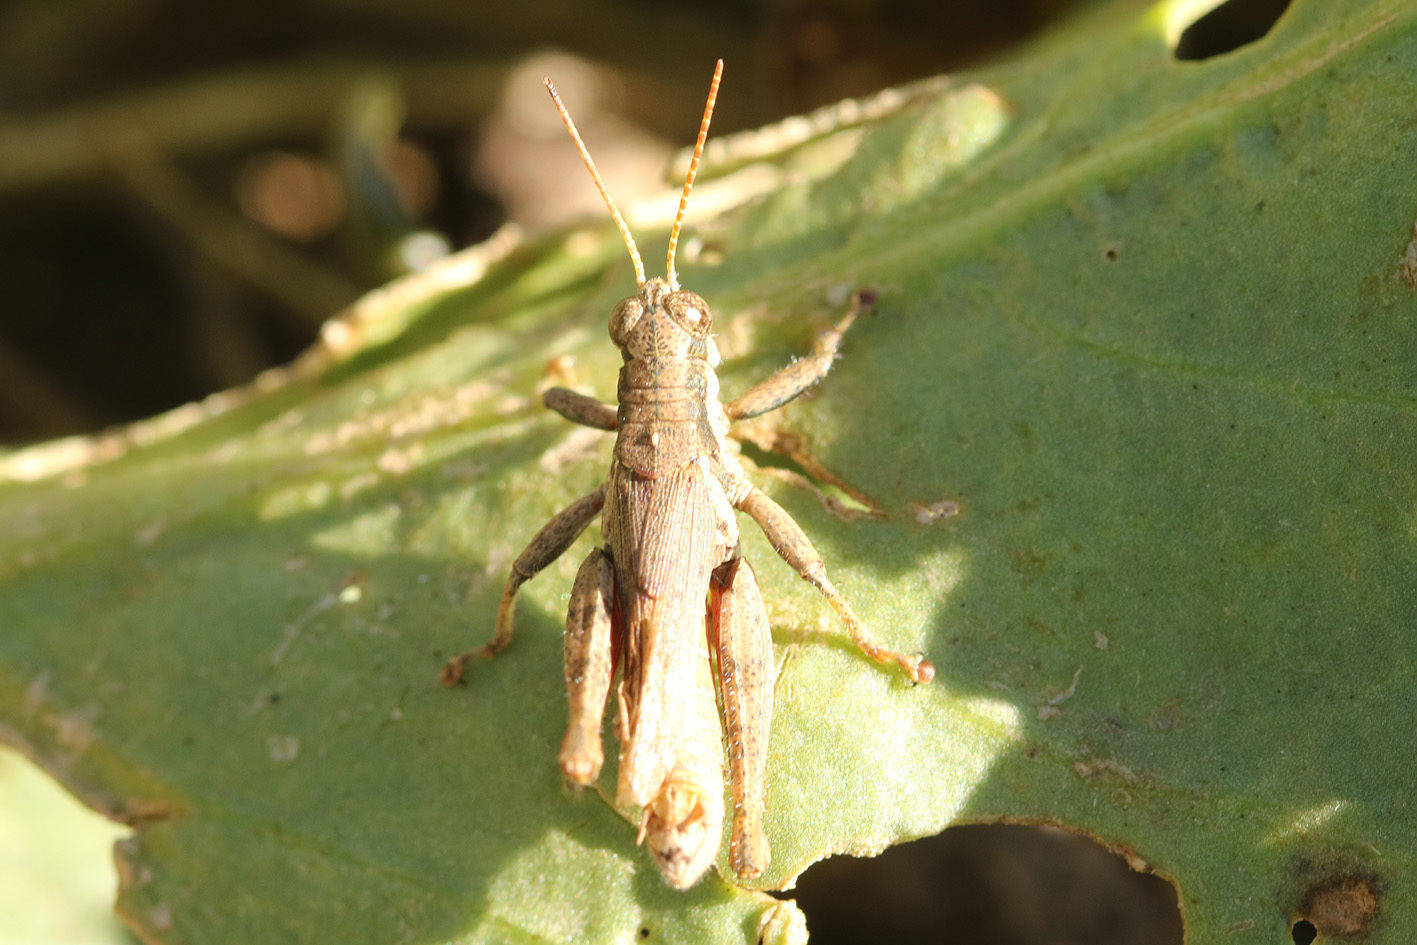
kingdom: Animalia
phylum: Arthropoda
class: Insecta
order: Orthoptera
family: Acrididae
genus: Ronderosia
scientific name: Ronderosia bergii
